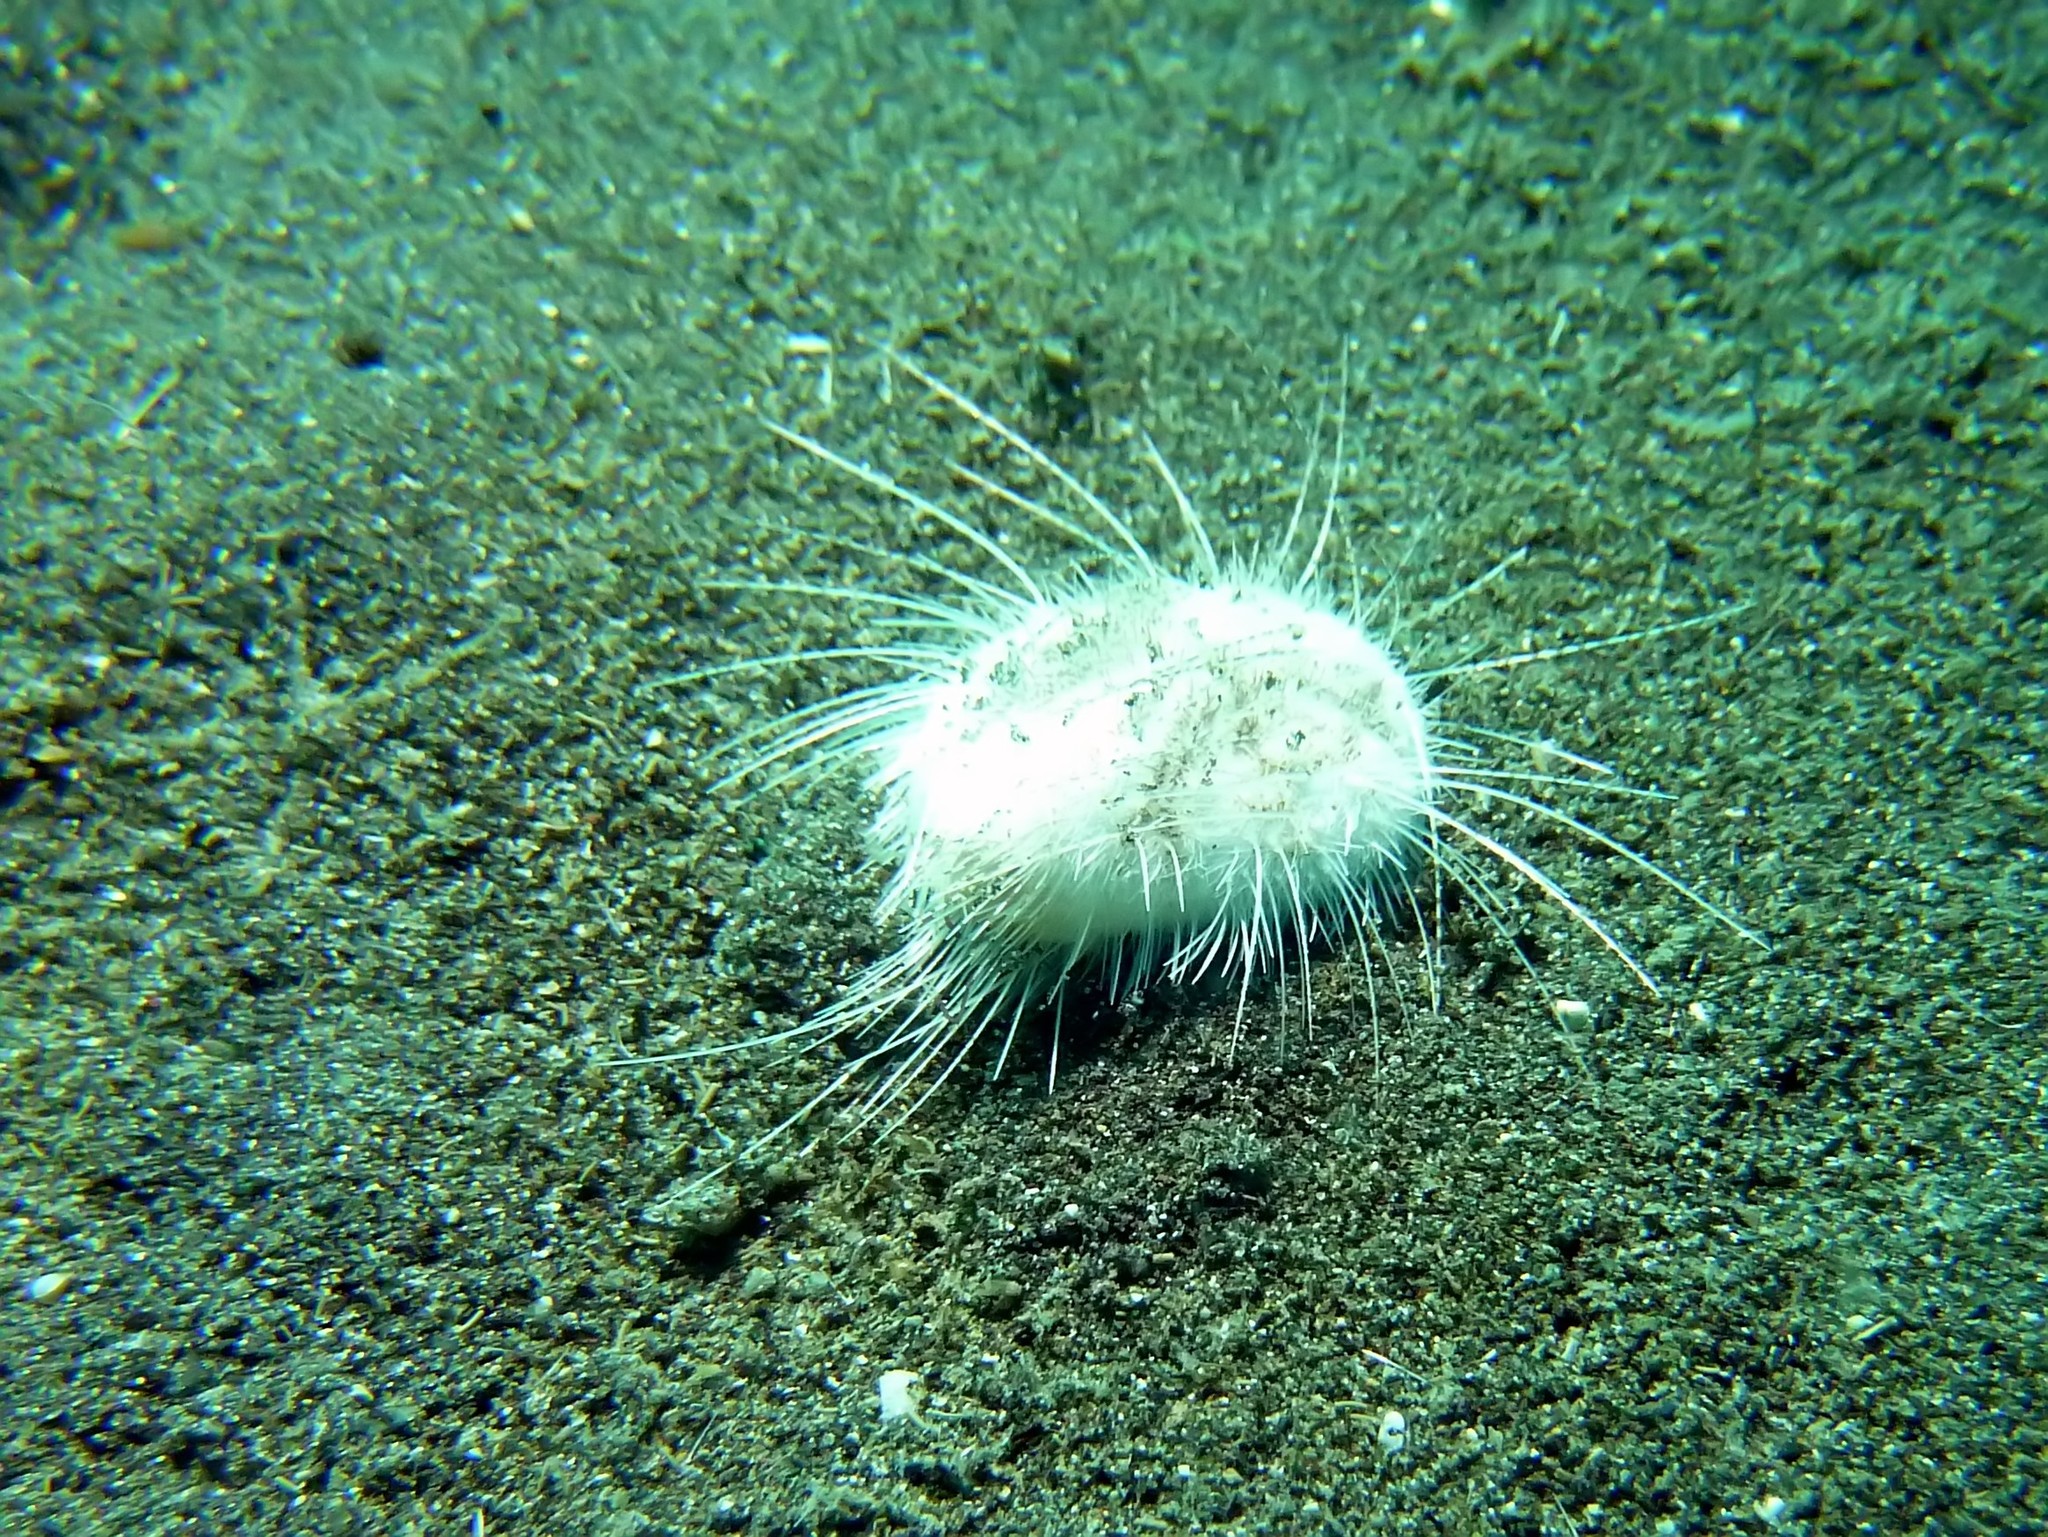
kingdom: Animalia
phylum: Echinodermata
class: Echinoidea
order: Spatangoida
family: Maretiidae
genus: Maretia
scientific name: Maretia planulata
